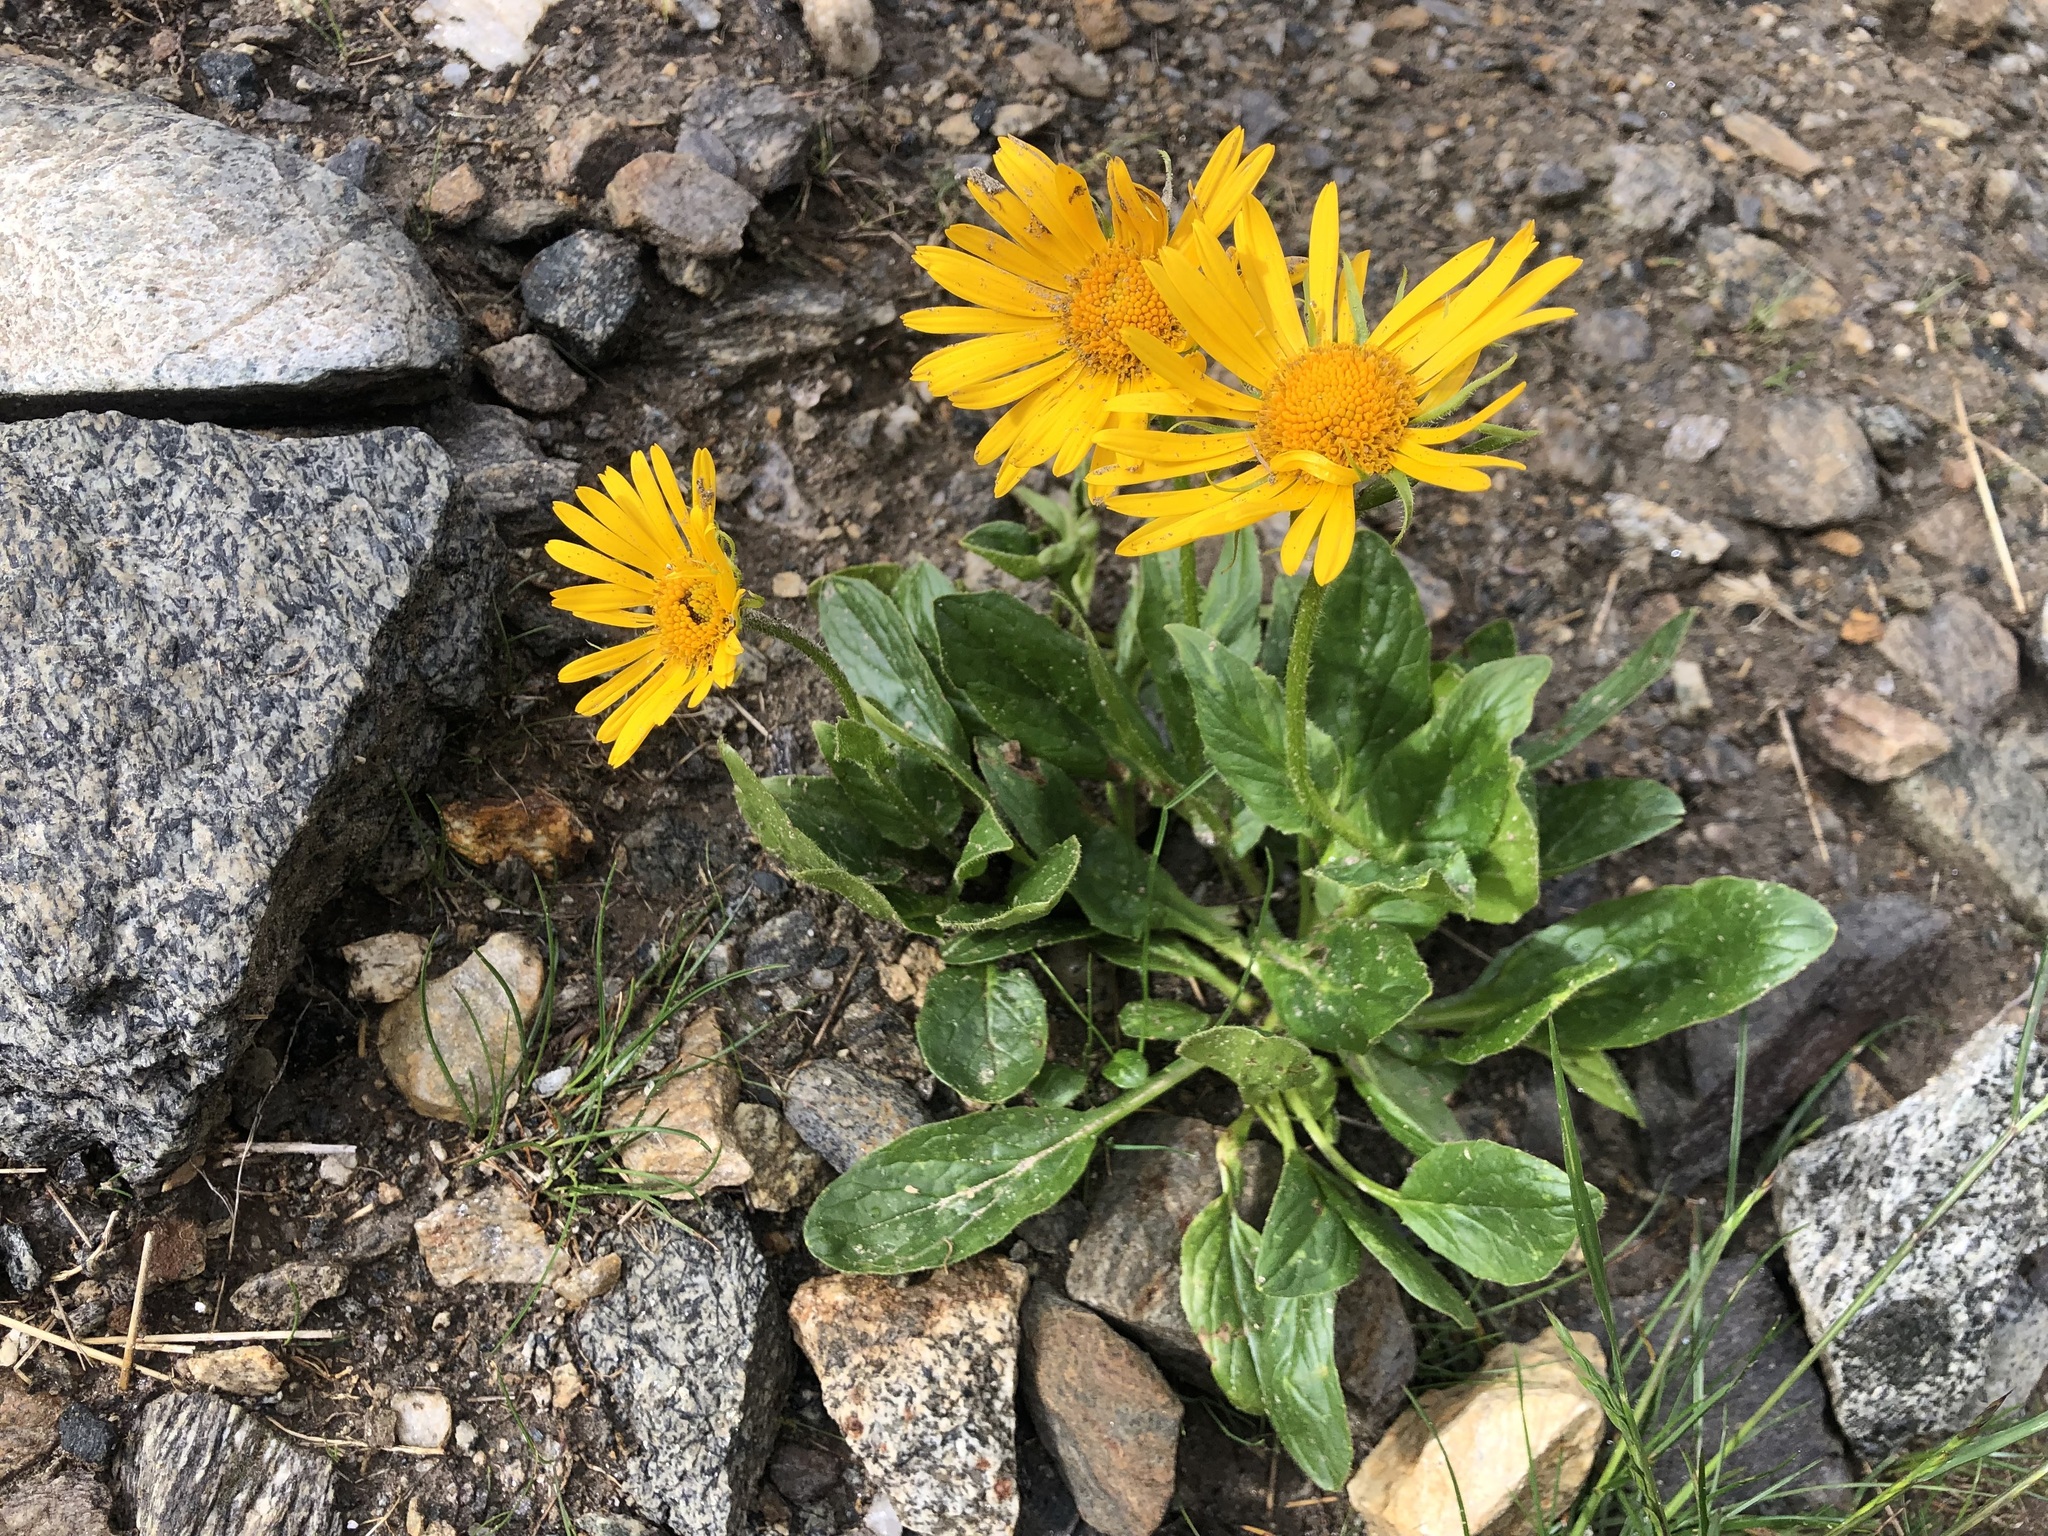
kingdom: Plantae
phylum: Tracheophyta
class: Magnoliopsida
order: Asterales
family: Asteraceae
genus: Doronicum
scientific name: Doronicum grandiflorum
